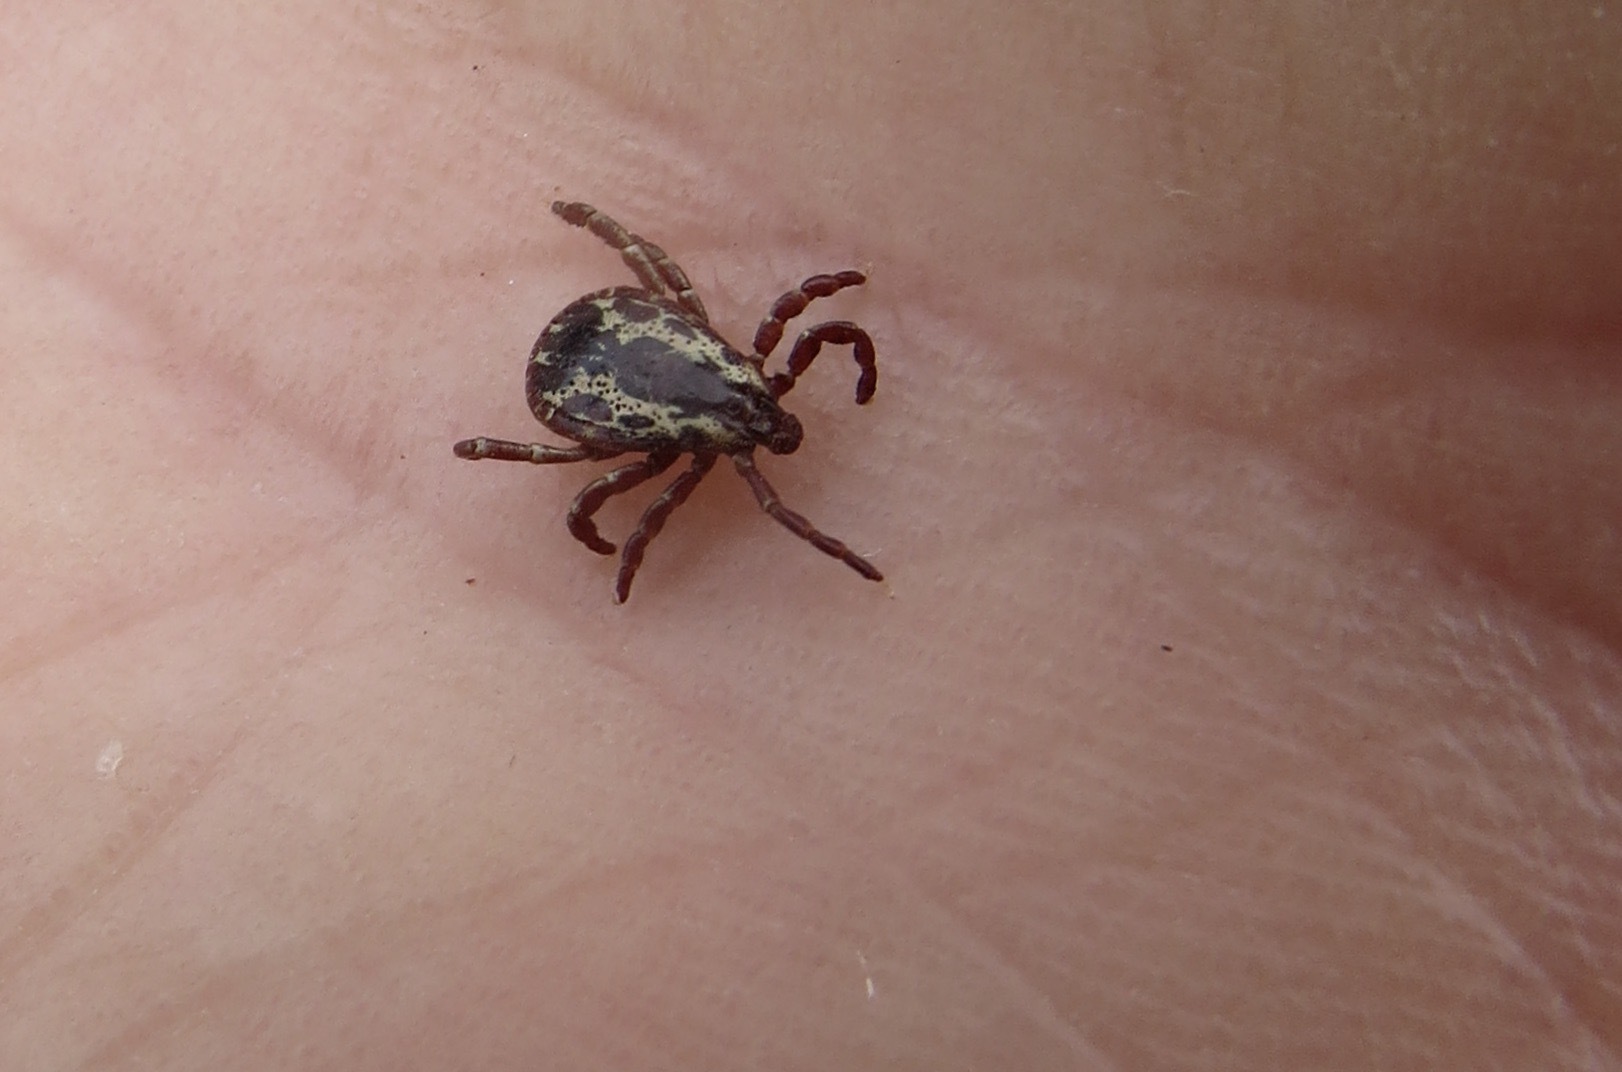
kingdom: Animalia
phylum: Arthropoda
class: Arachnida
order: Ixodida
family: Ixodidae
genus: Dermacentor
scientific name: Dermacentor variabilis
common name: American dog tick
